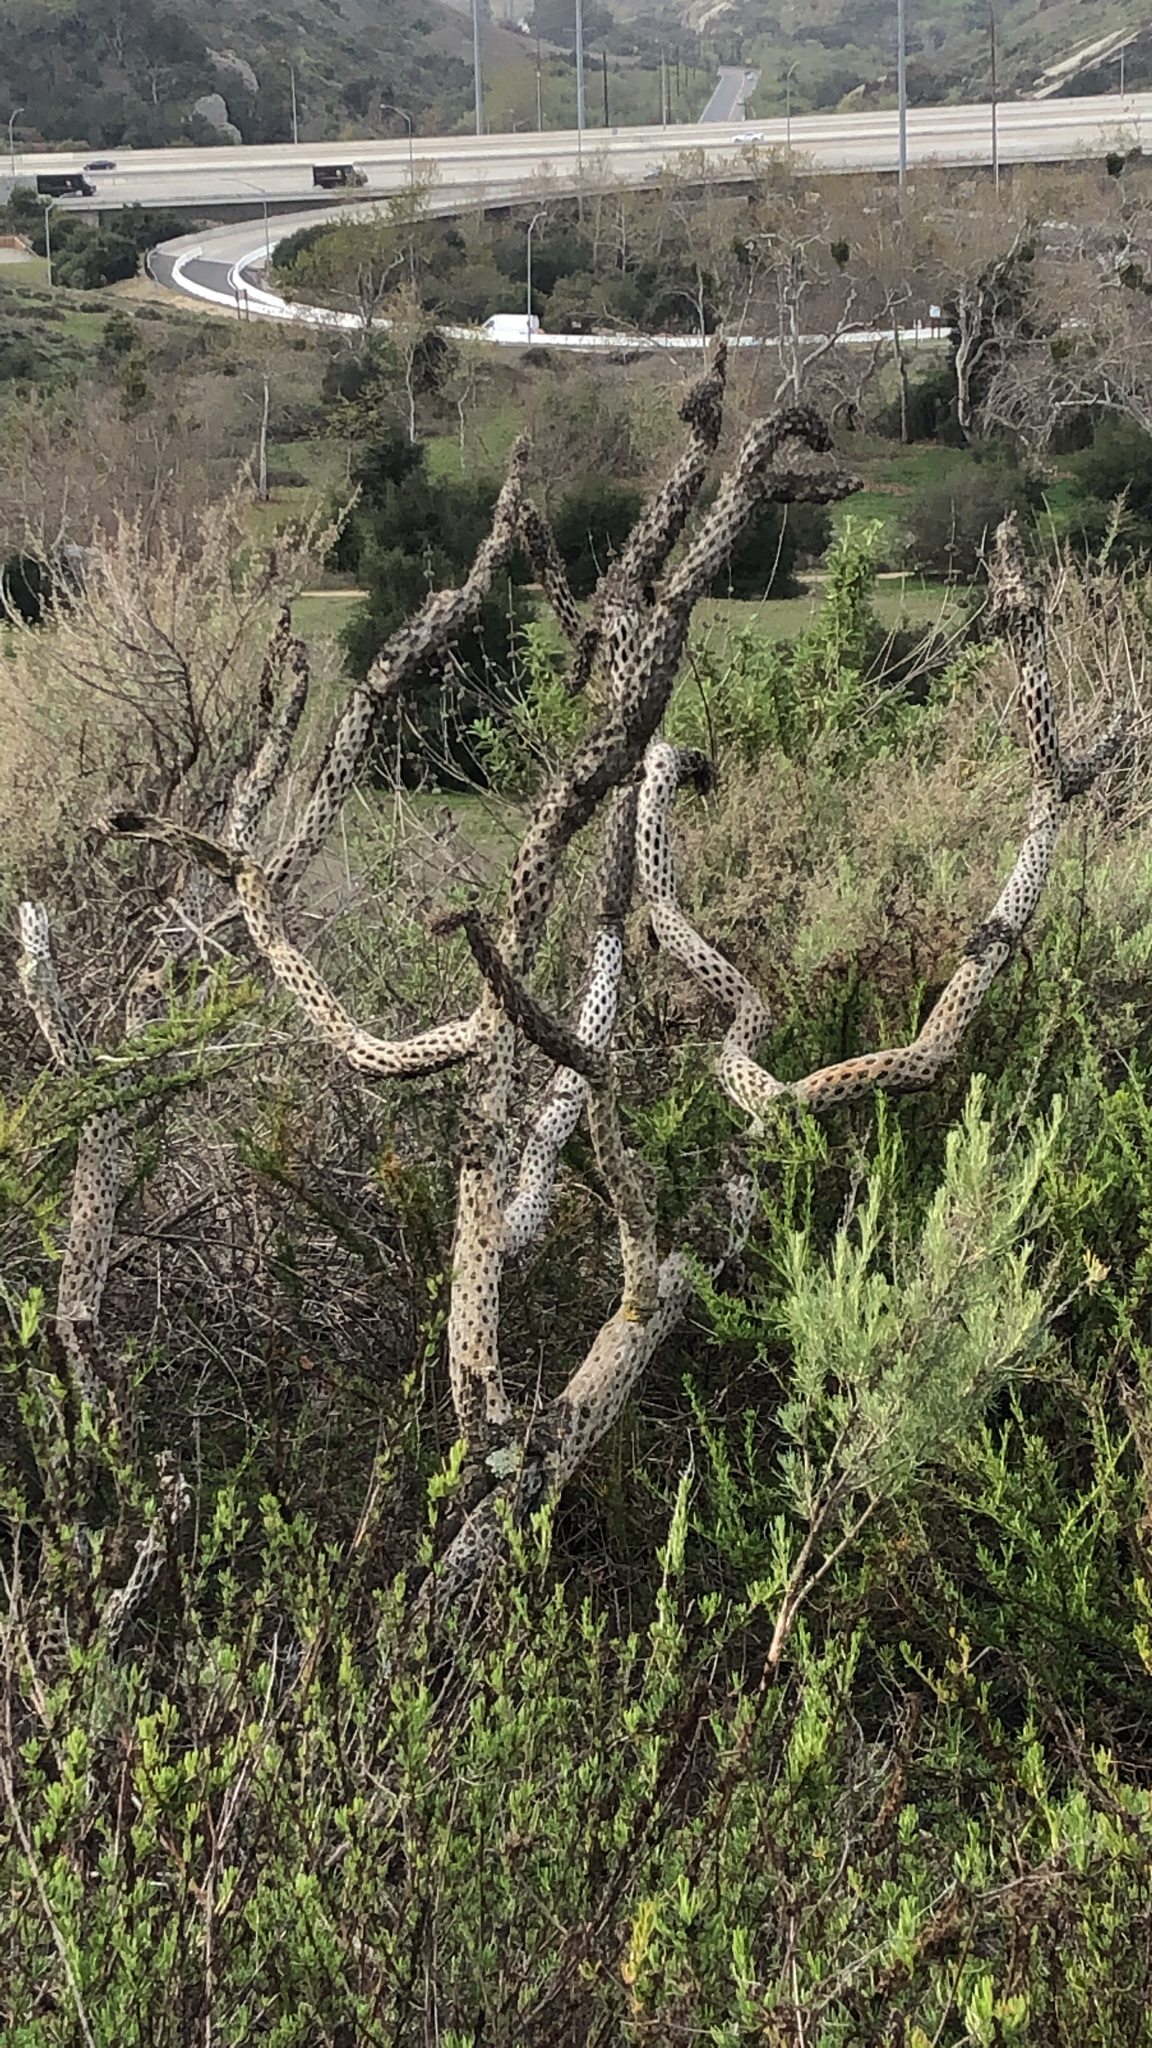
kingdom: Plantae
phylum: Tracheophyta
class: Magnoliopsida
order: Caryophyllales
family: Cactaceae
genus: Cylindropuntia
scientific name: Cylindropuntia prolifera
